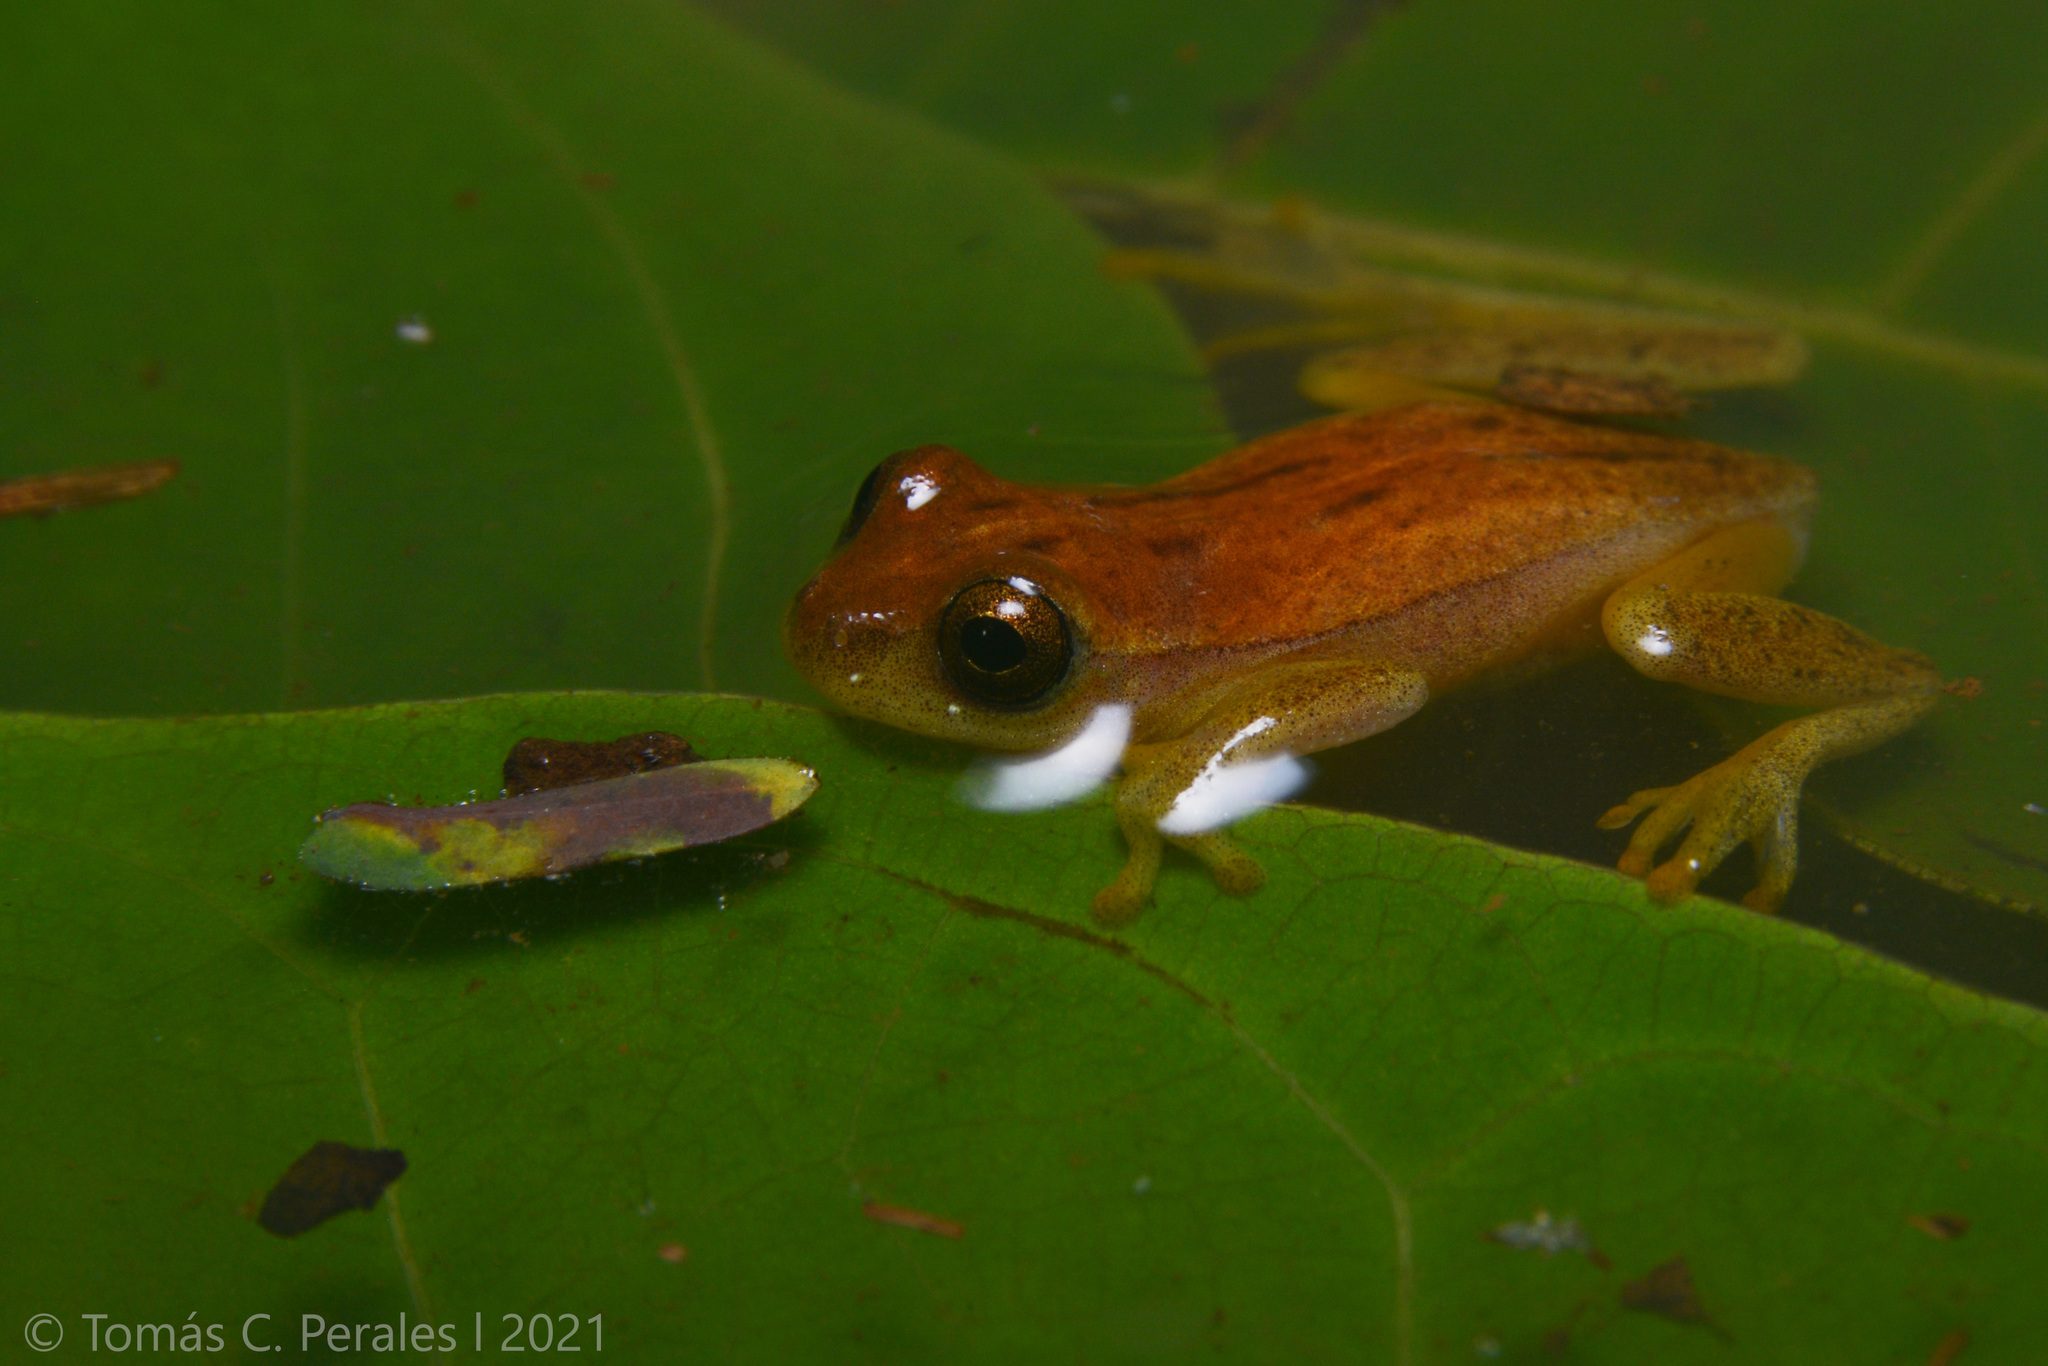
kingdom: Animalia
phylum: Chordata
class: Amphibia
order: Anura
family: Hylidae
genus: Dendropsophus
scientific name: Dendropsophus sanborni
